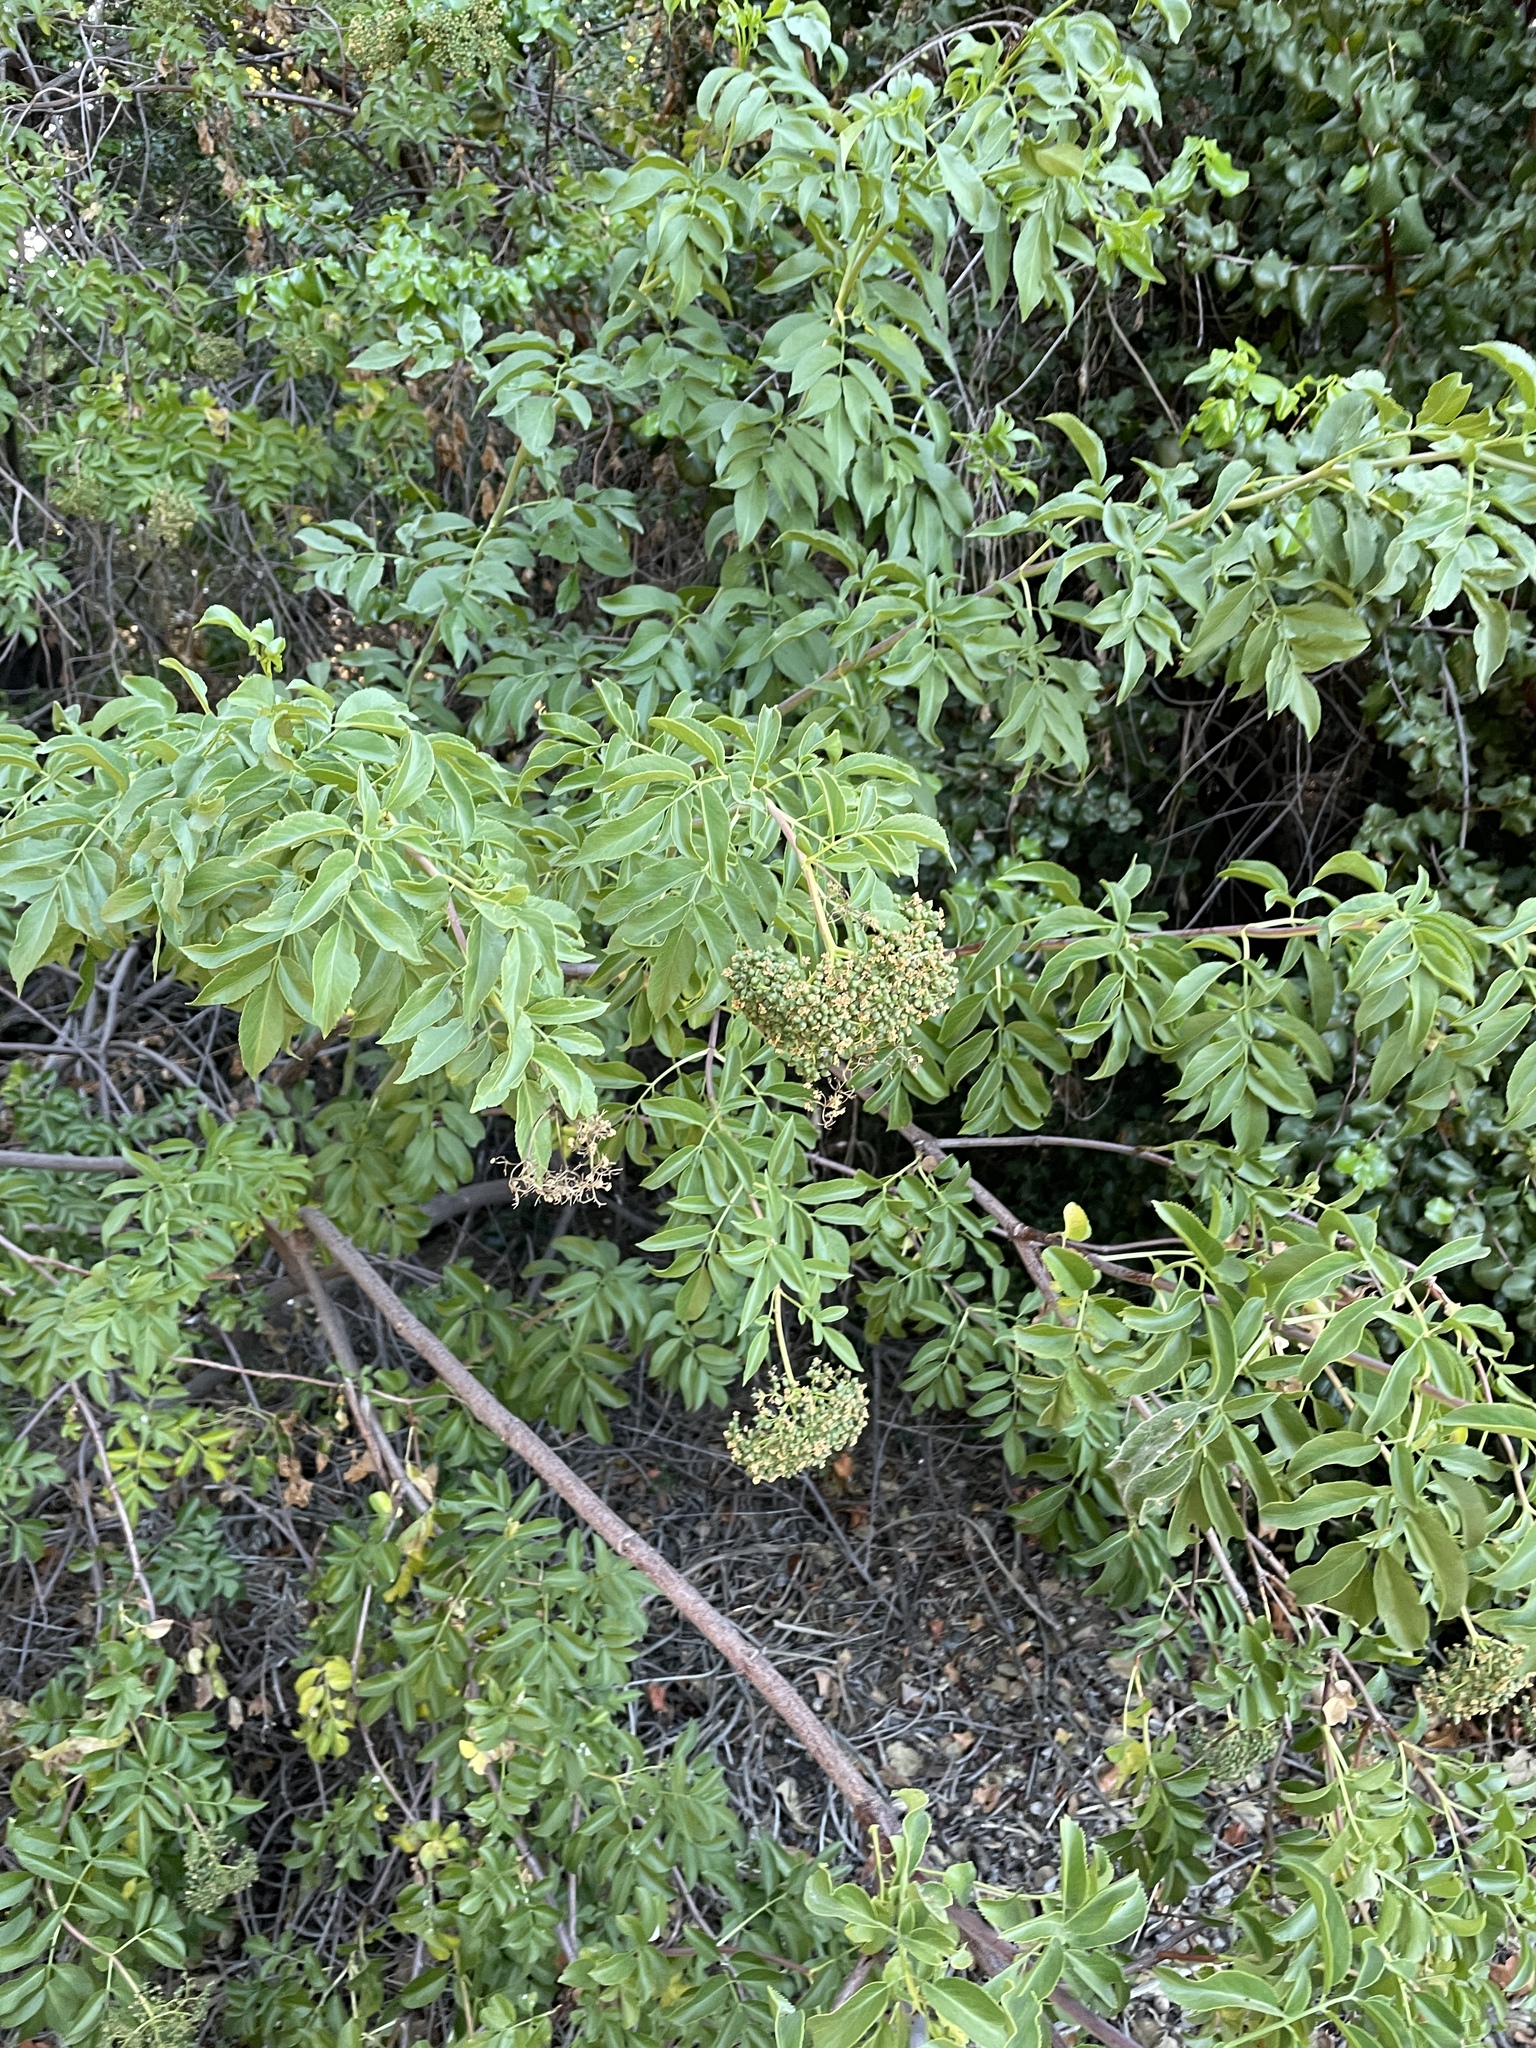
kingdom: Plantae
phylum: Tracheophyta
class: Magnoliopsida
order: Dipsacales
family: Viburnaceae
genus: Sambucus
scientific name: Sambucus cerulea
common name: Blue elder
